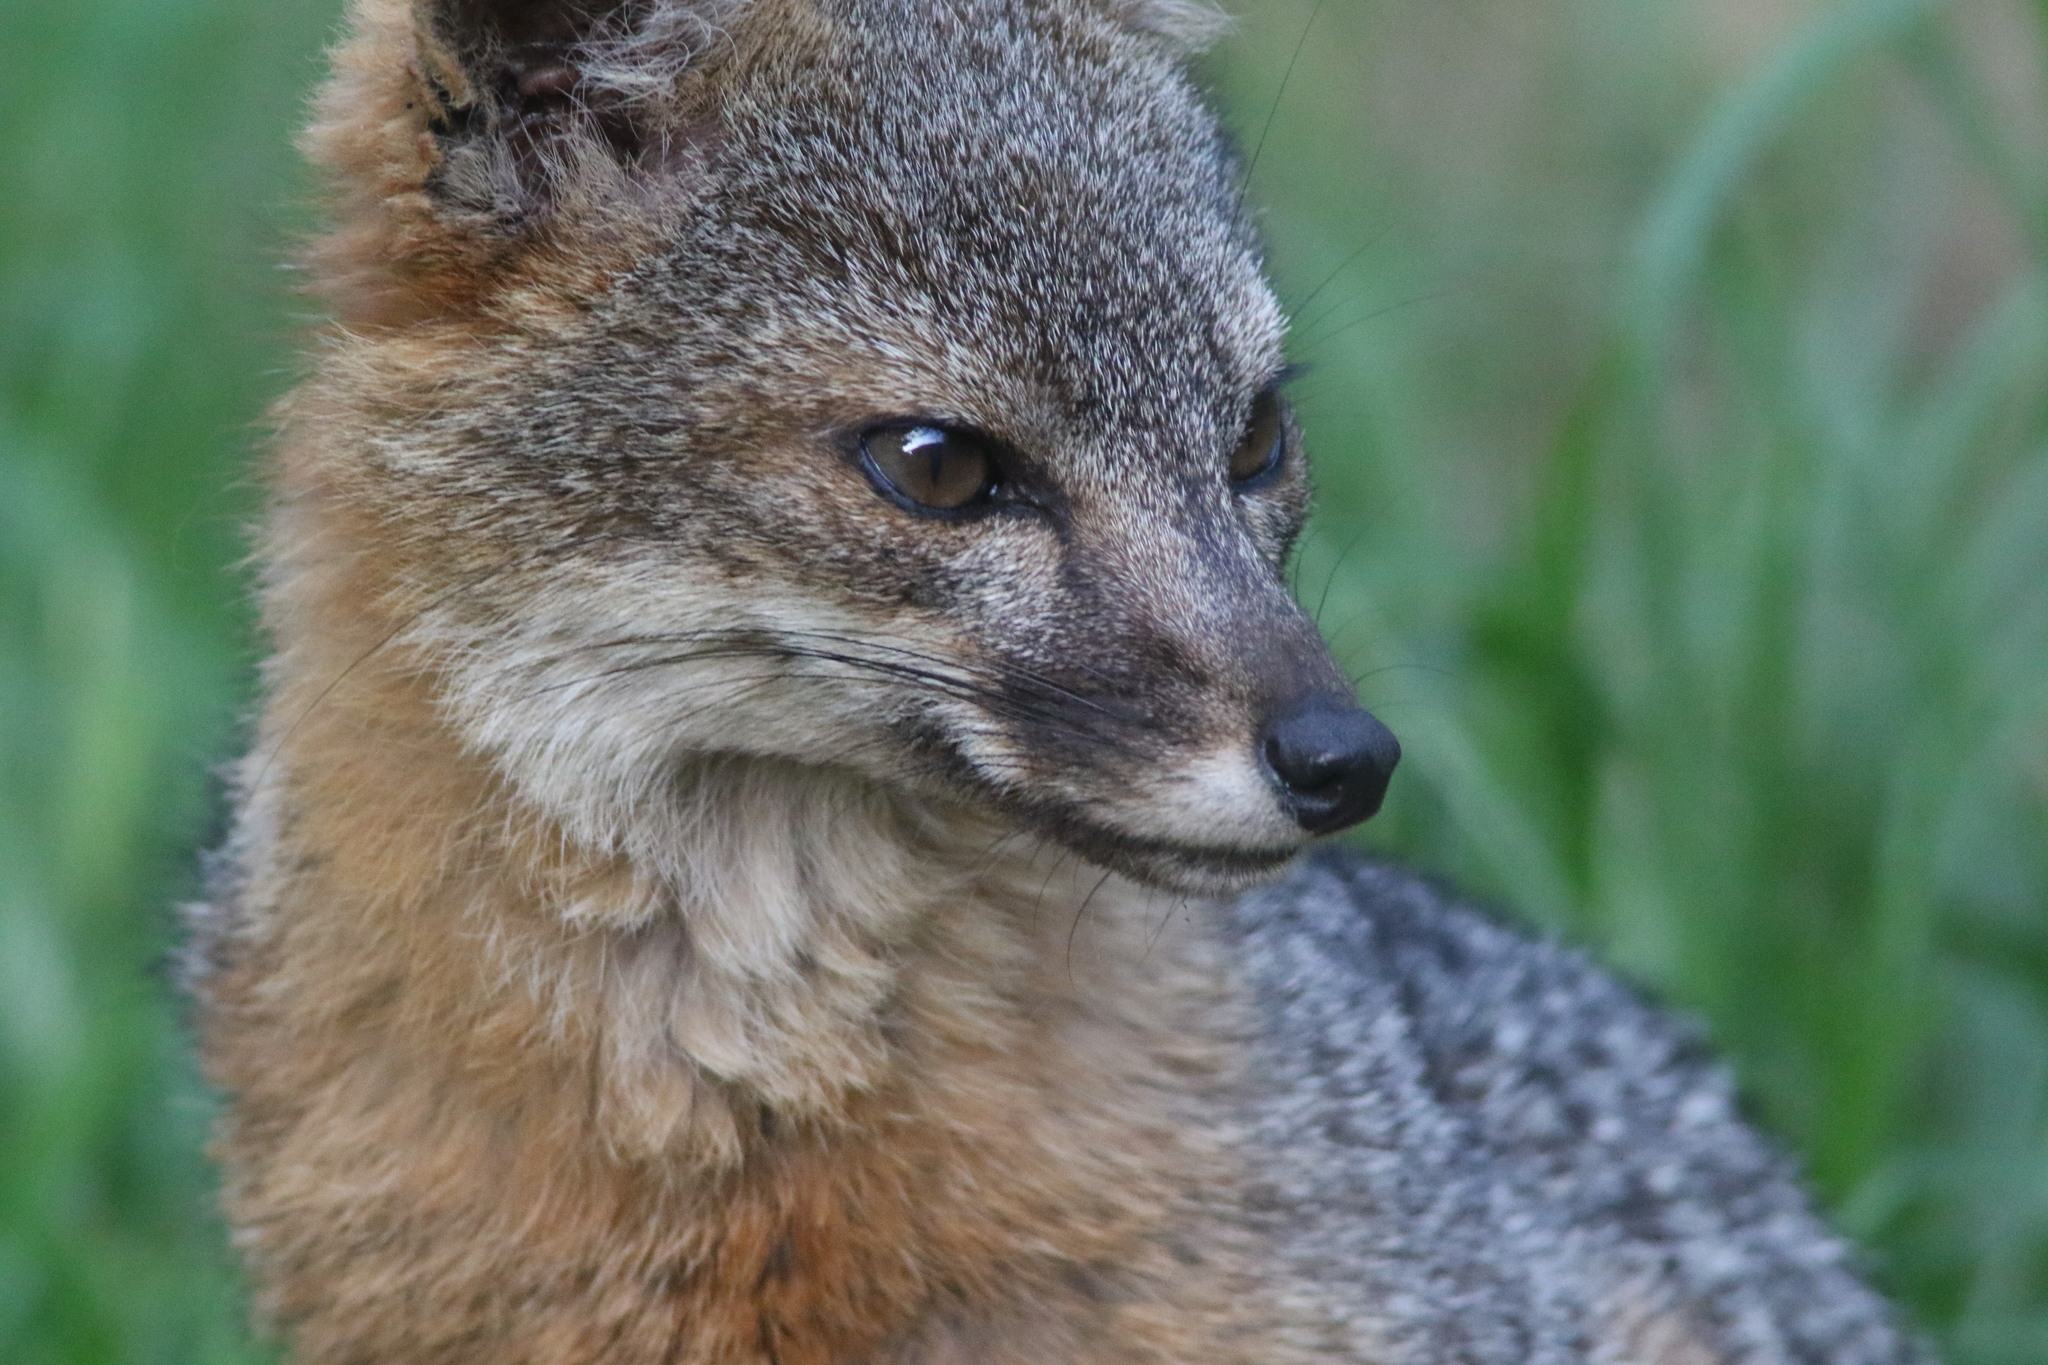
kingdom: Animalia
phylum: Chordata
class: Mammalia
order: Carnivora
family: Canidae
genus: Urocyon
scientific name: Urocyon littoralis
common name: Island gray fox
